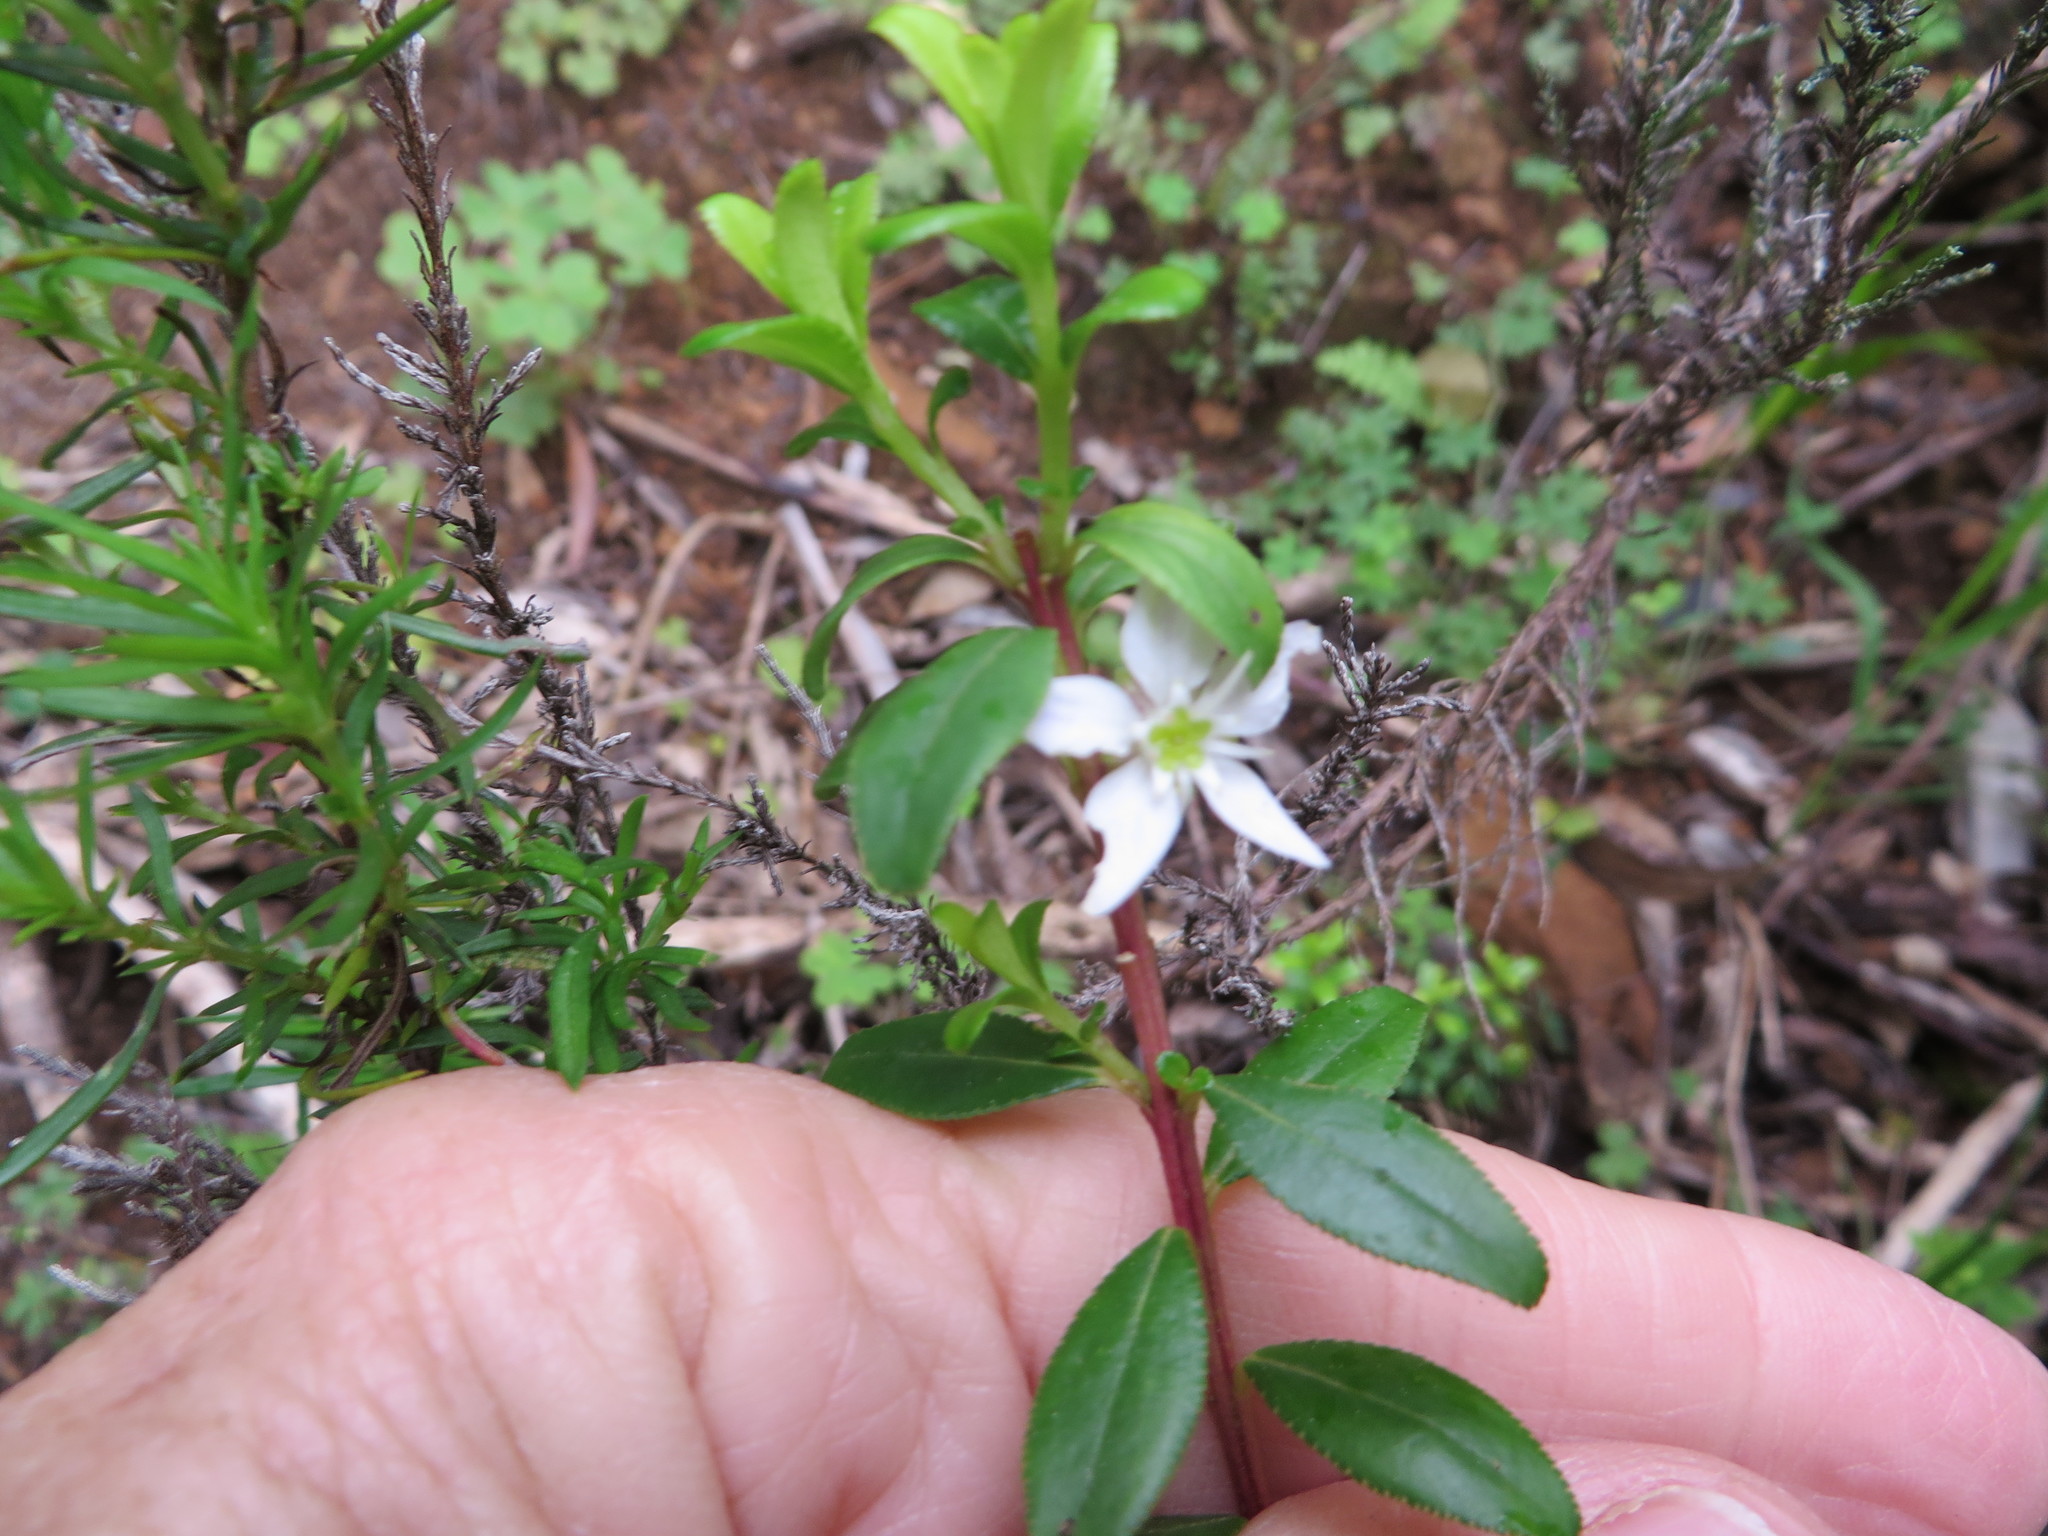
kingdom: Plantae
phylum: Tracheophyta
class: Magnoliopsida
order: Sapindales
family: Rutaceae
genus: Agathosma
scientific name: Agathosma ovata
